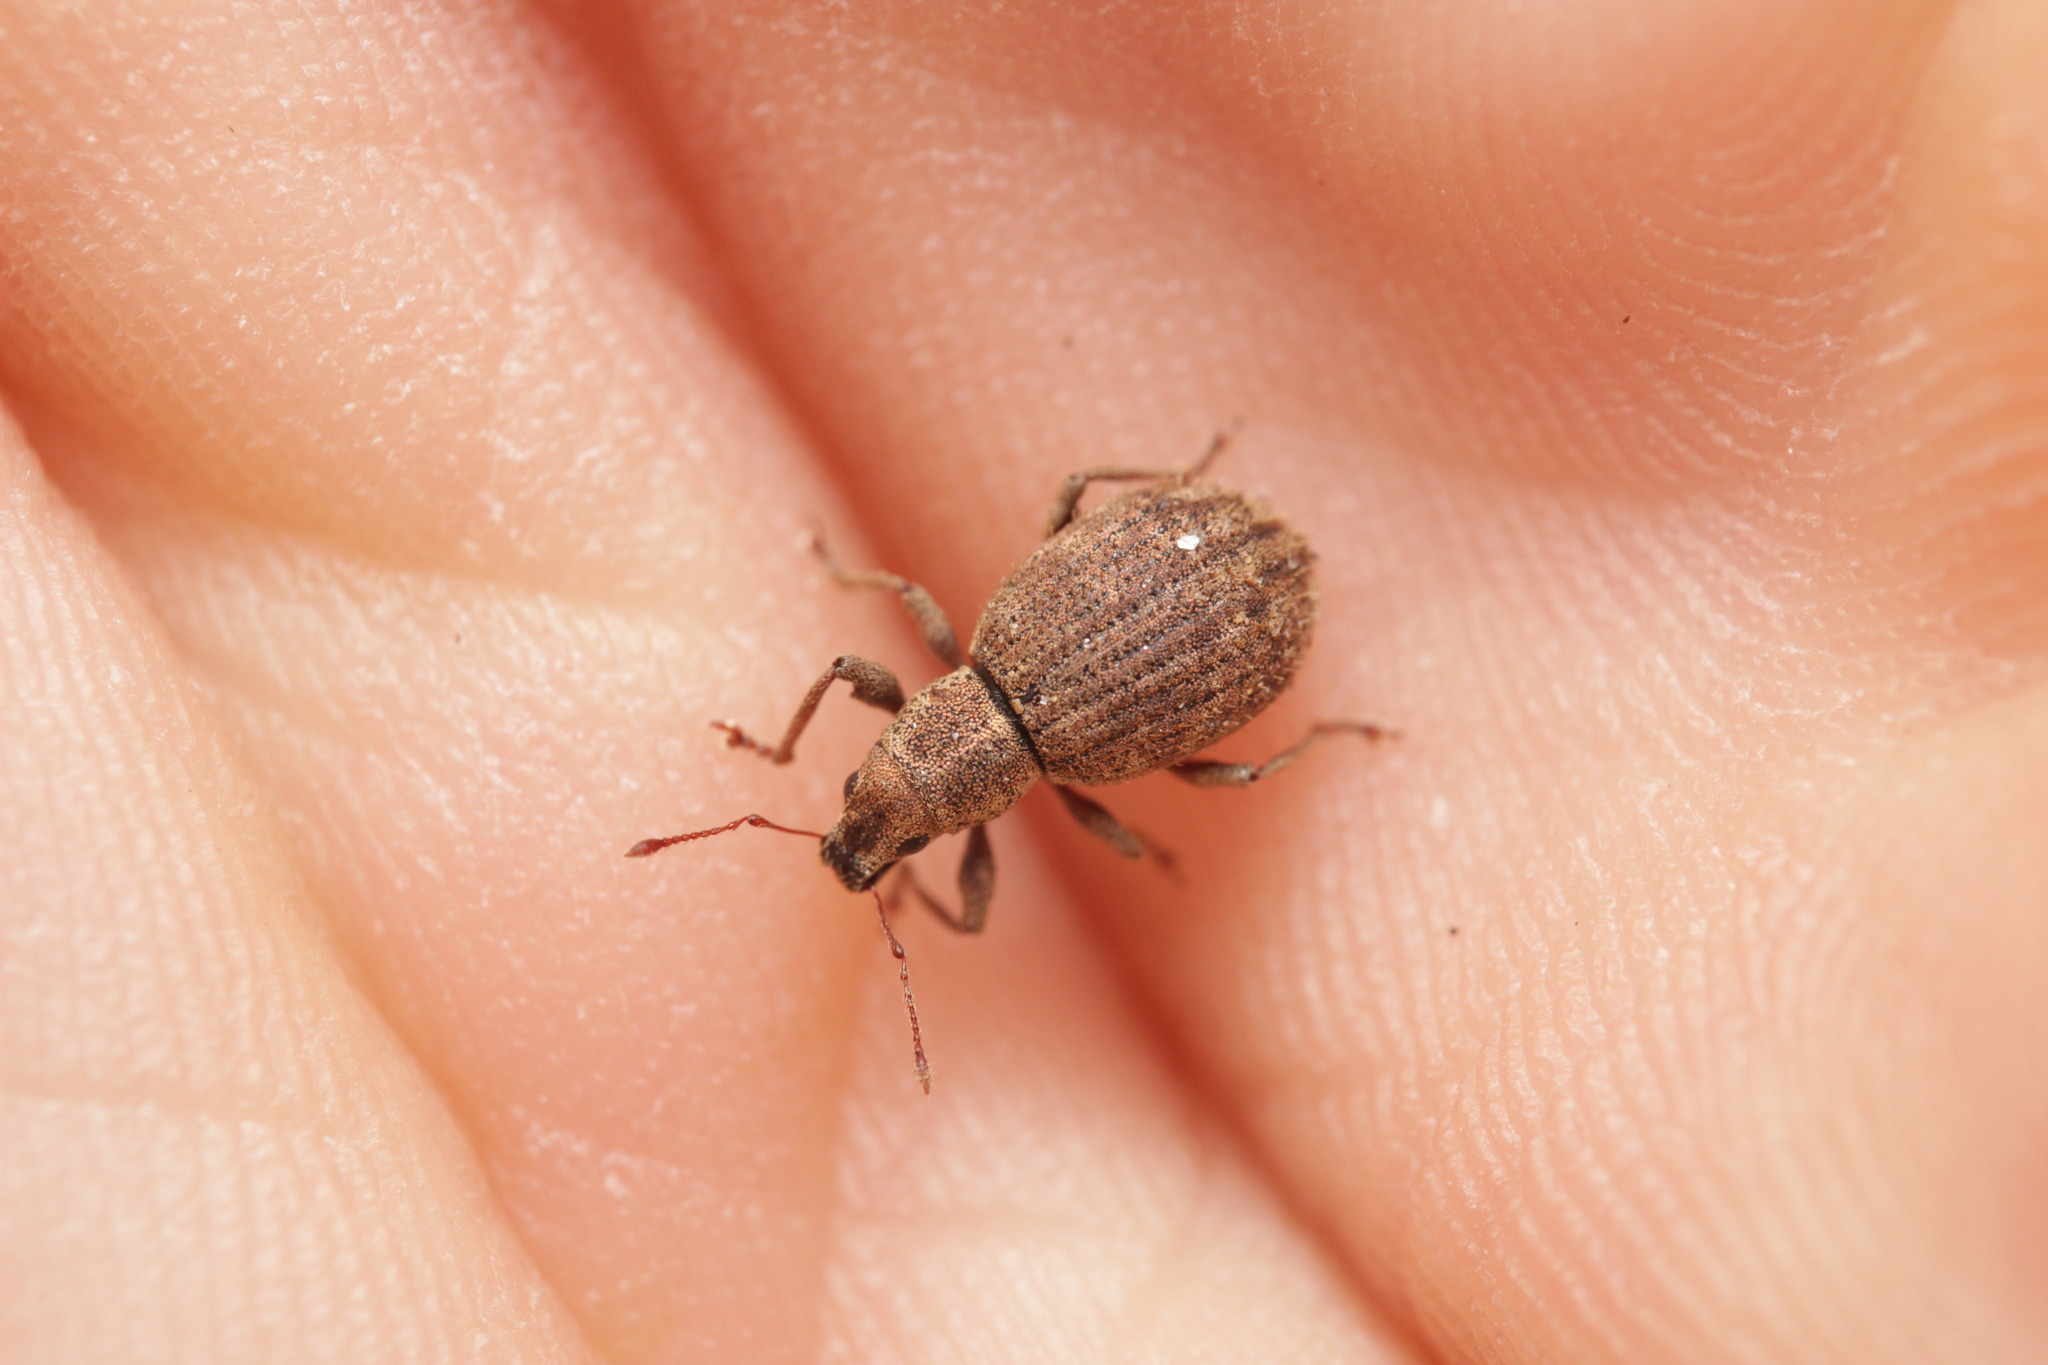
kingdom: Animalia
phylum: Arthropoda
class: Insecta
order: Coleoptera
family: Curculionidae
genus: Sciaphilus
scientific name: Sciaphilus asperatus
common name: Weevil
